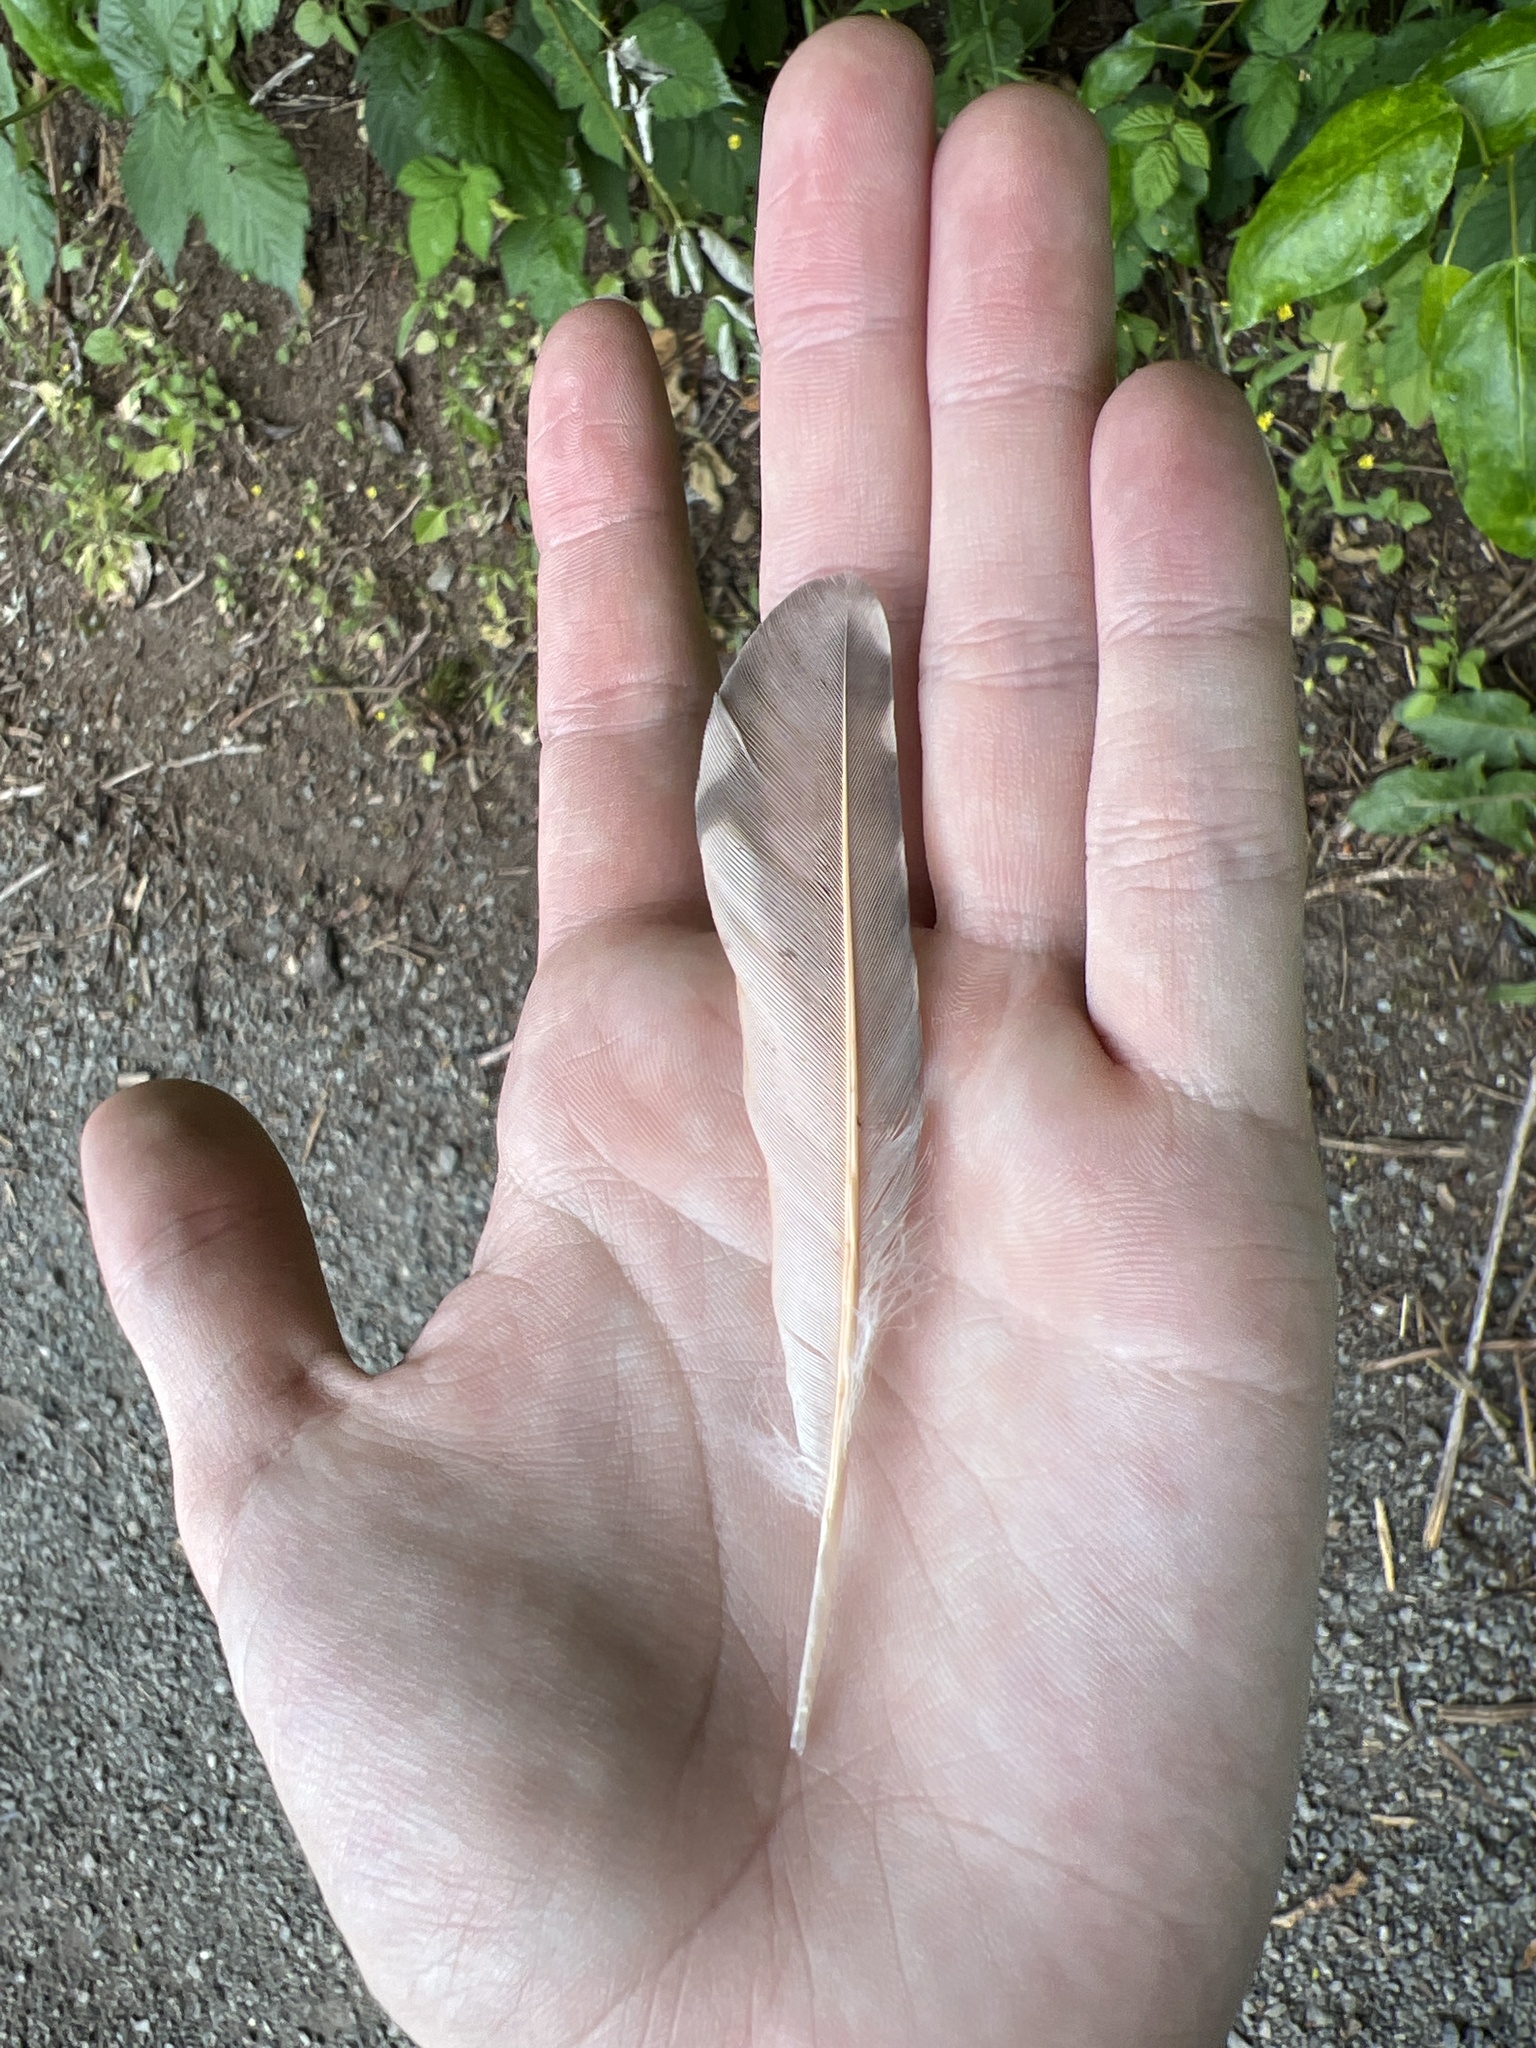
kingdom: Animalia
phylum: Chordata
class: Aves
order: Piciformes
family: Picidae
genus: Colaptes
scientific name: Colaptes auratus
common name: Northern flicker
